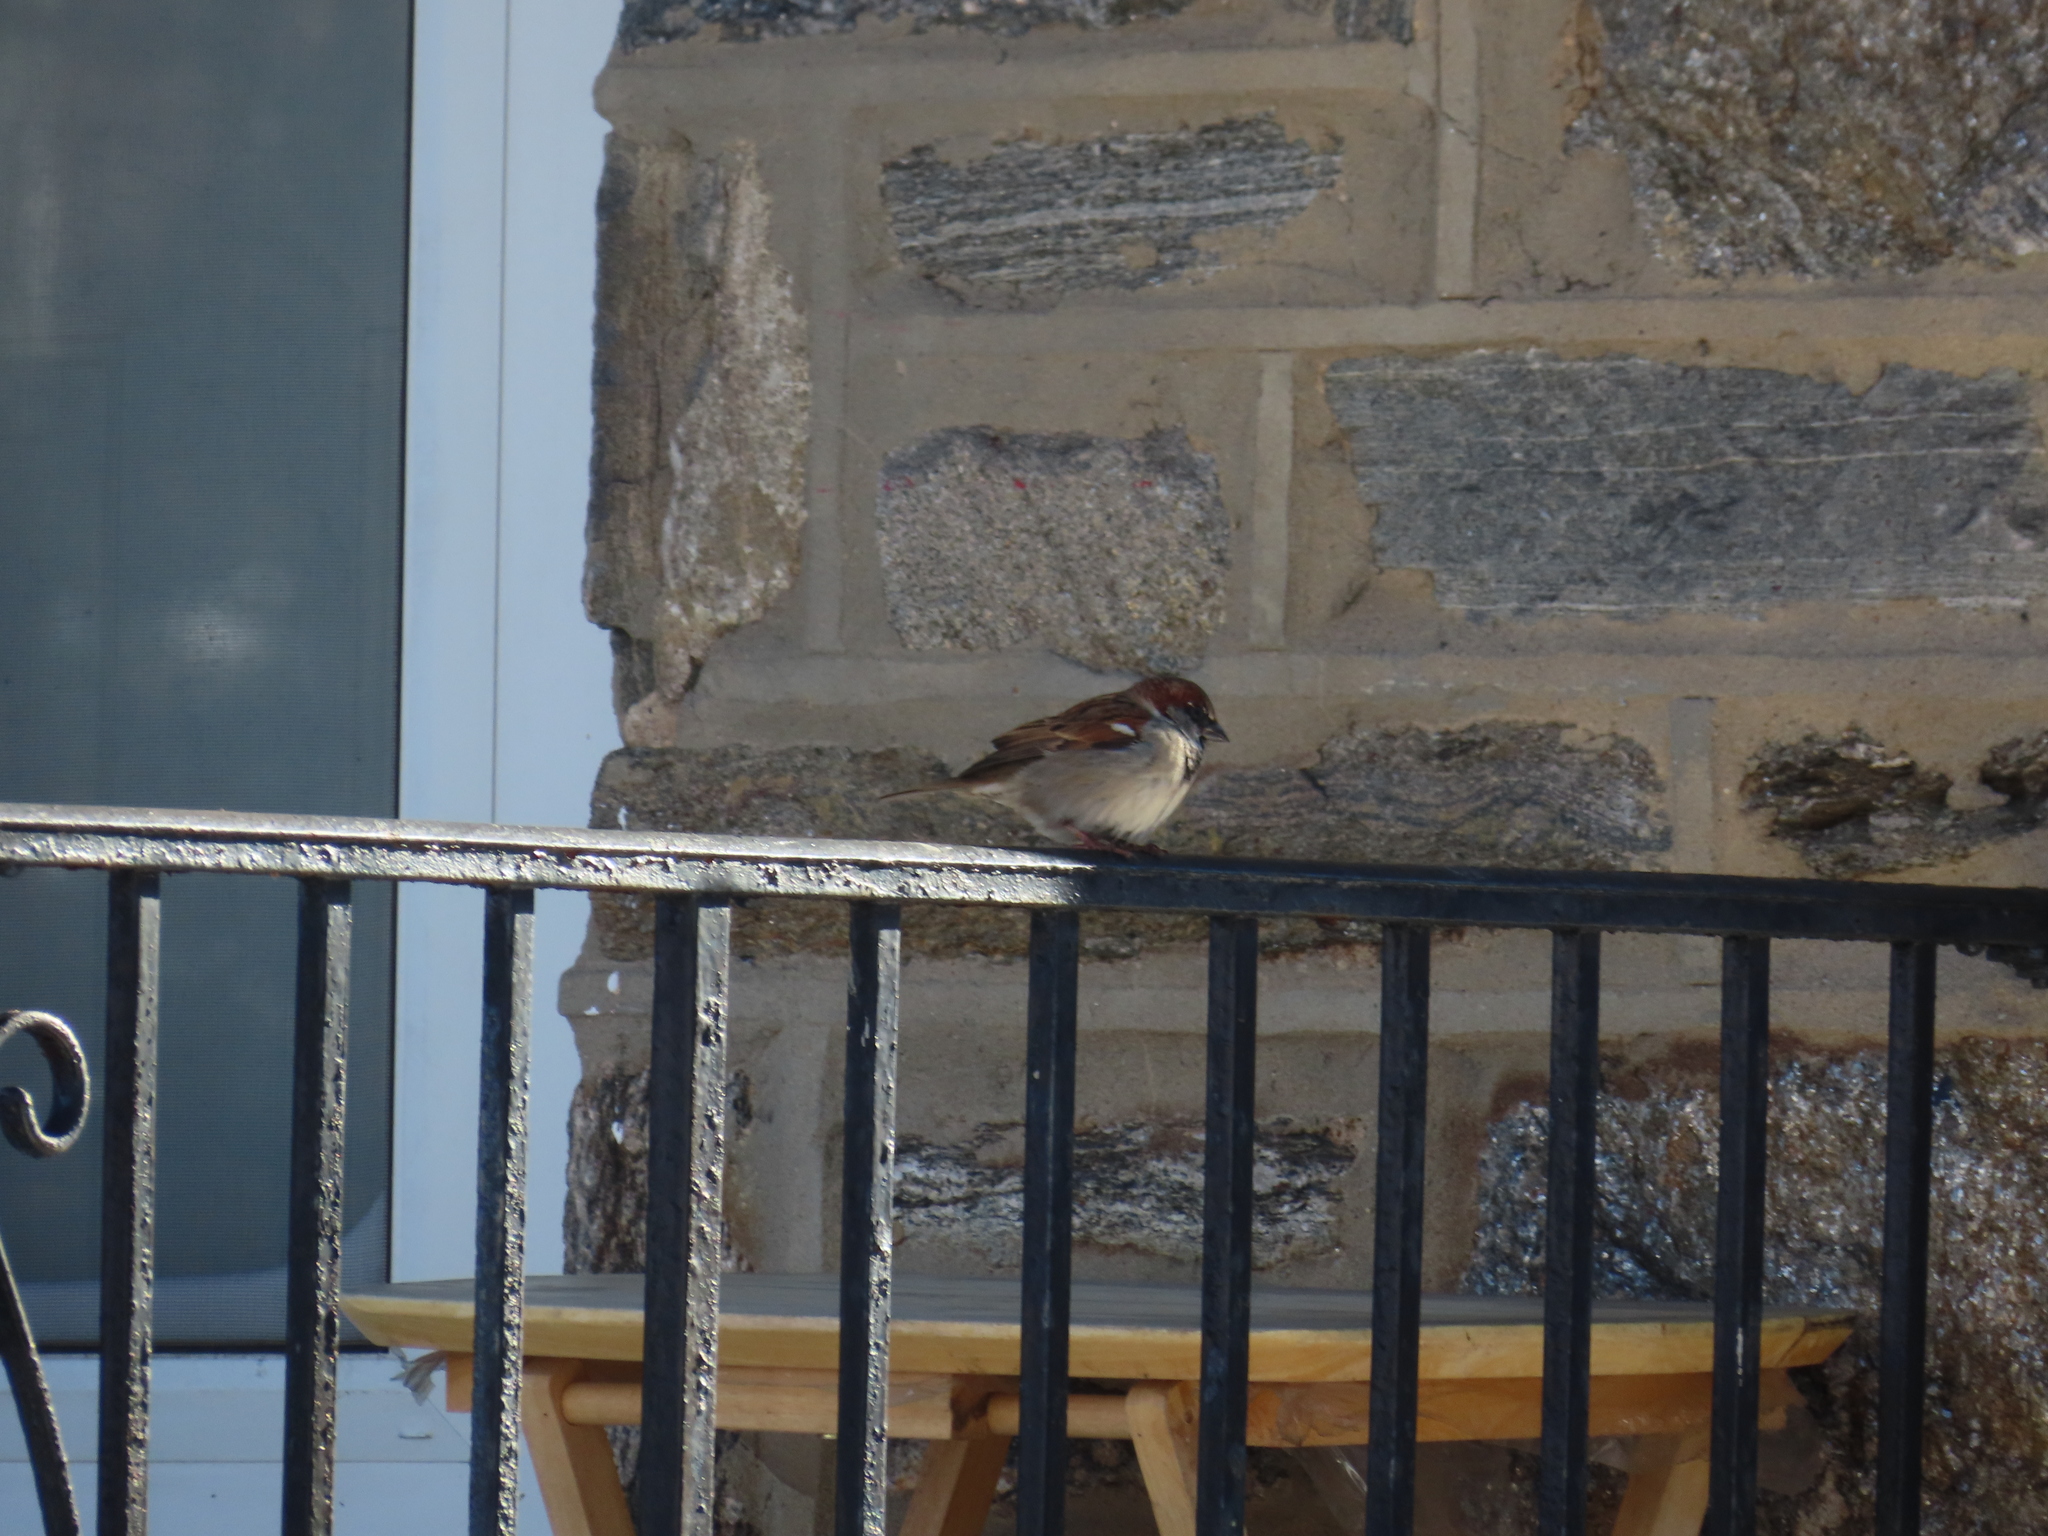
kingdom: Animalia
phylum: Chordata
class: Aves
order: Passeriformes
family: Passeridae
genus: Passer
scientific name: Passer domesticus
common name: House sparrow
